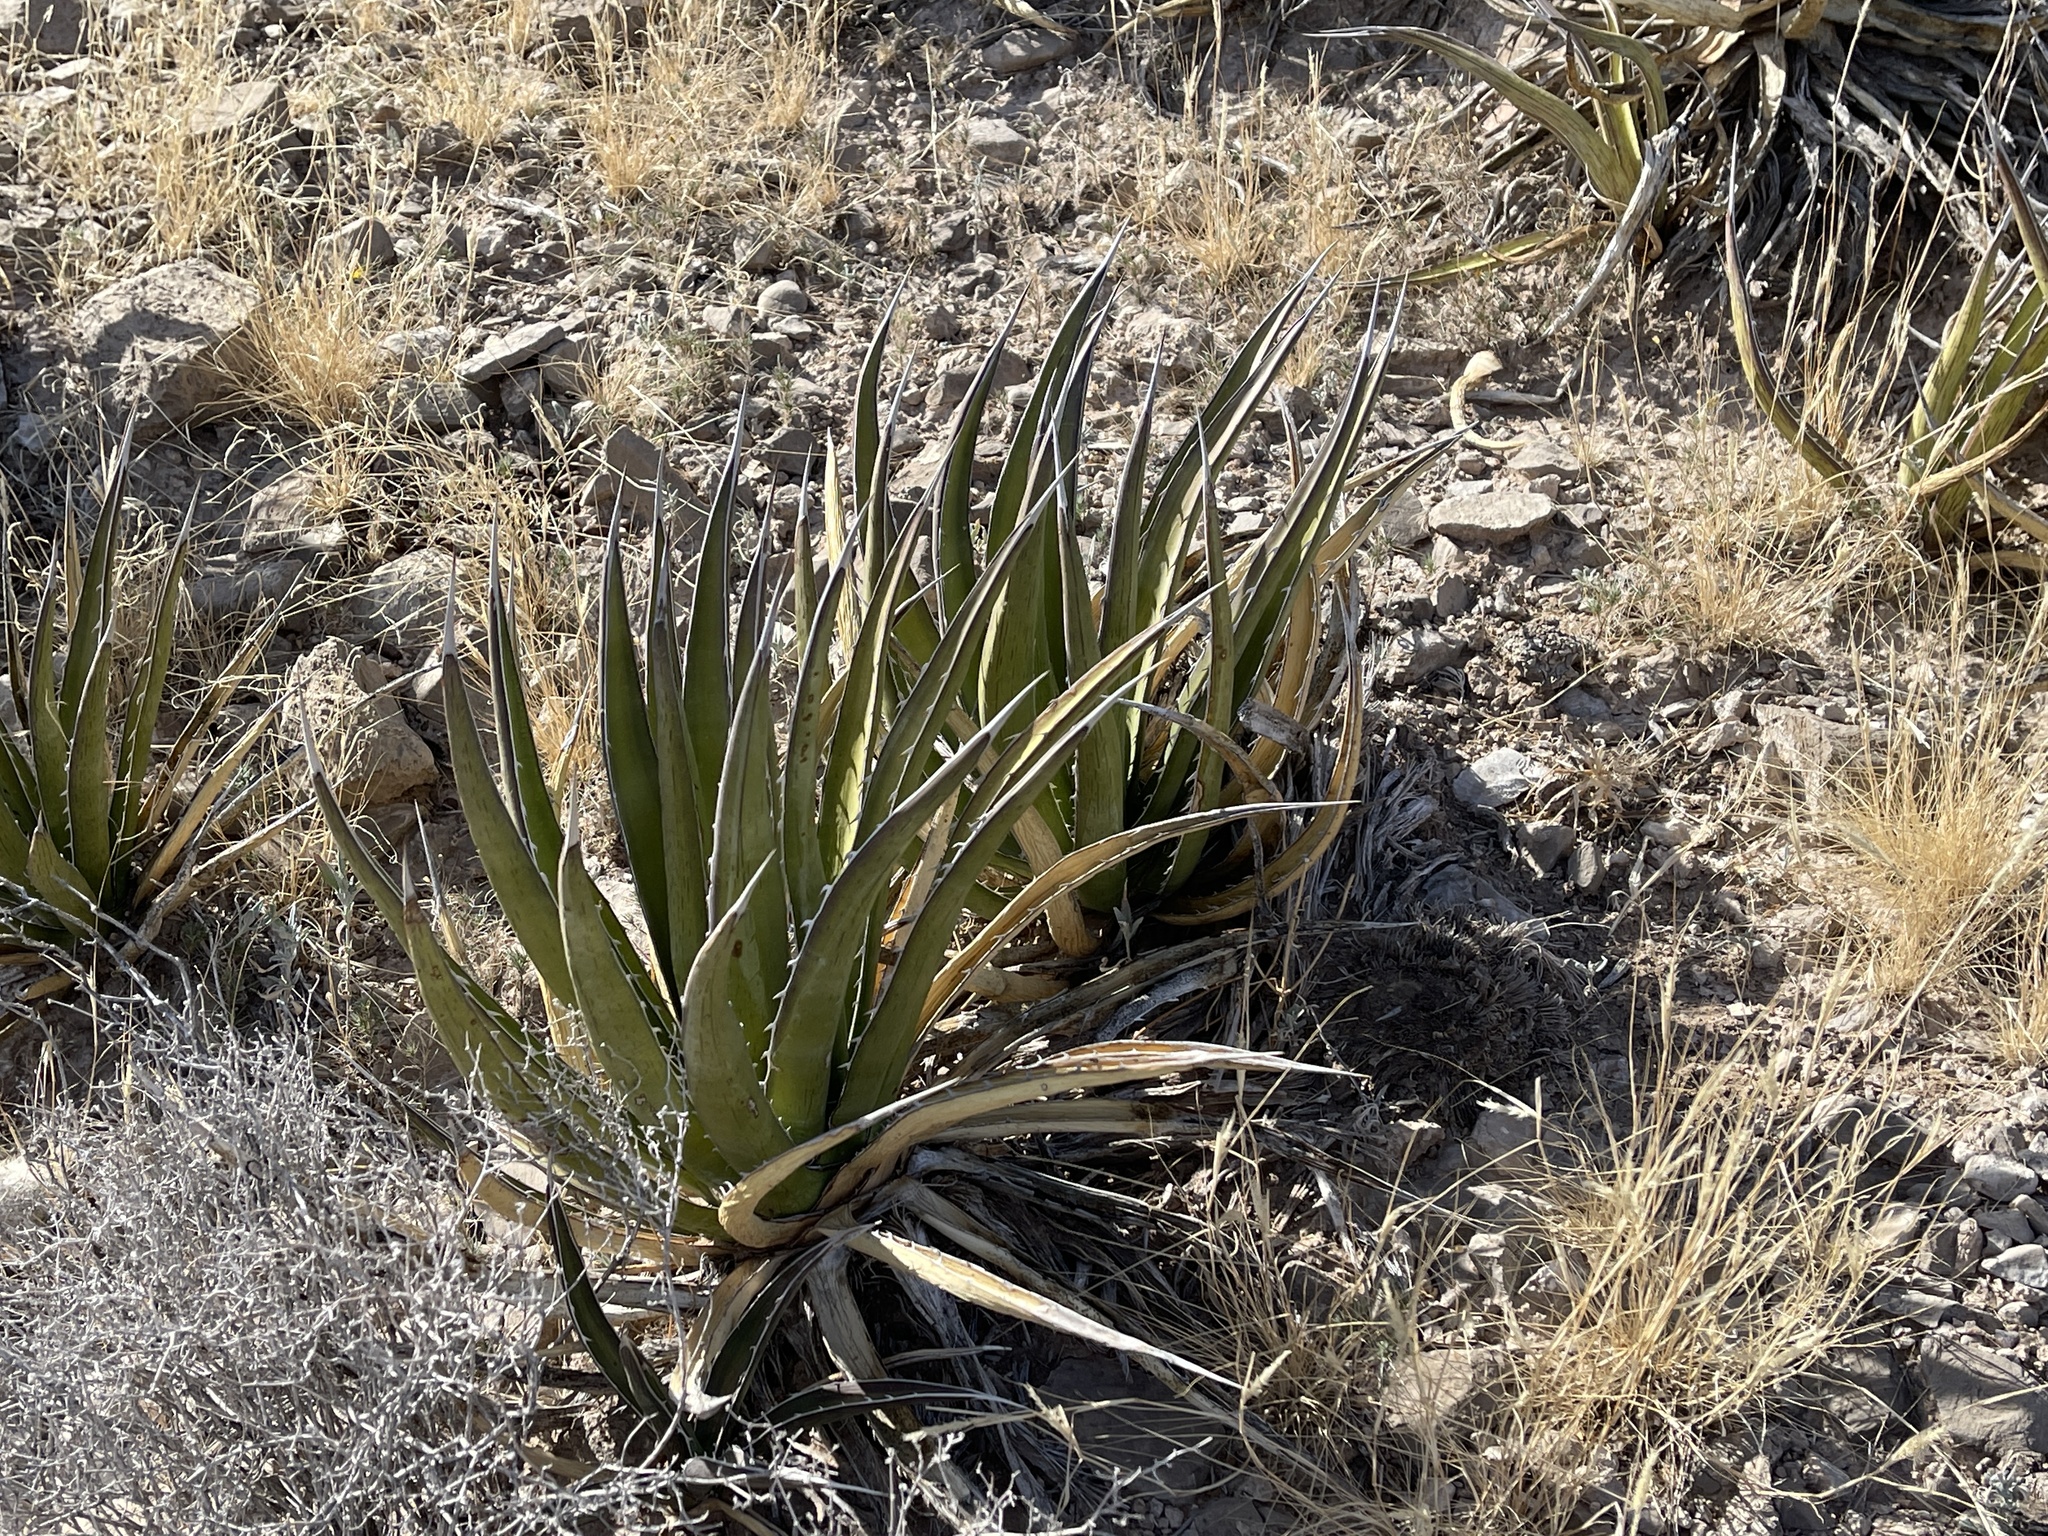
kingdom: Plantae
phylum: Tracheophyta
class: Liliopsida
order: Asparagales
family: Asparagaceae
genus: Agave
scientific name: Agave lechuguilla
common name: Lecheguilla agave
